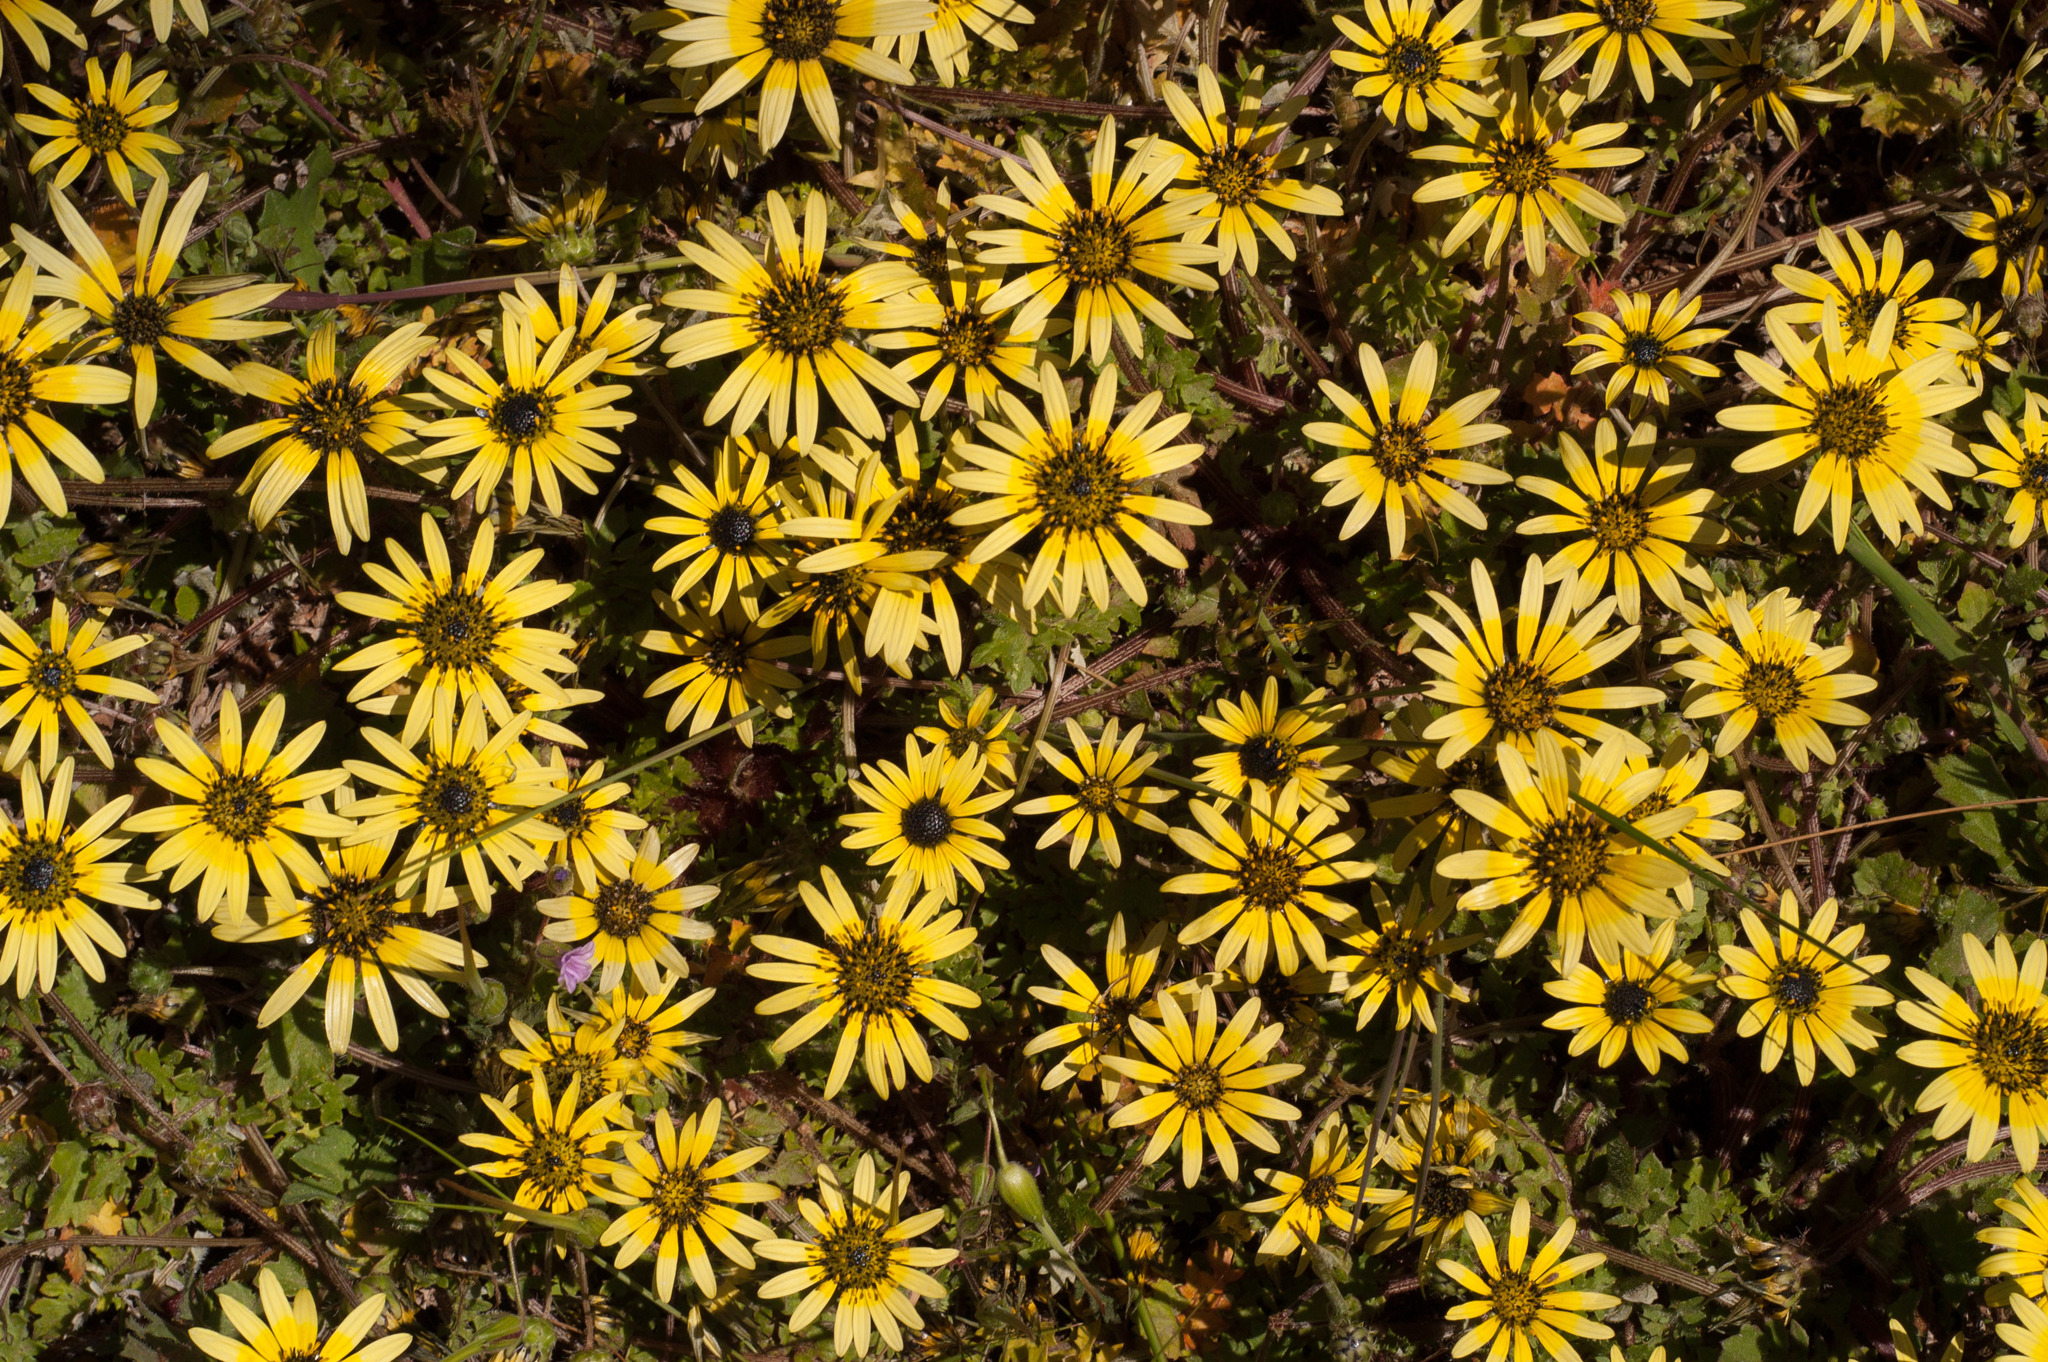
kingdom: Plantae
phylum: Tracheophyta
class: Magnoliopsida
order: Asterales
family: Asteraceae
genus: Arctotheca
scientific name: Arctotheca calendula
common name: Capeweed
